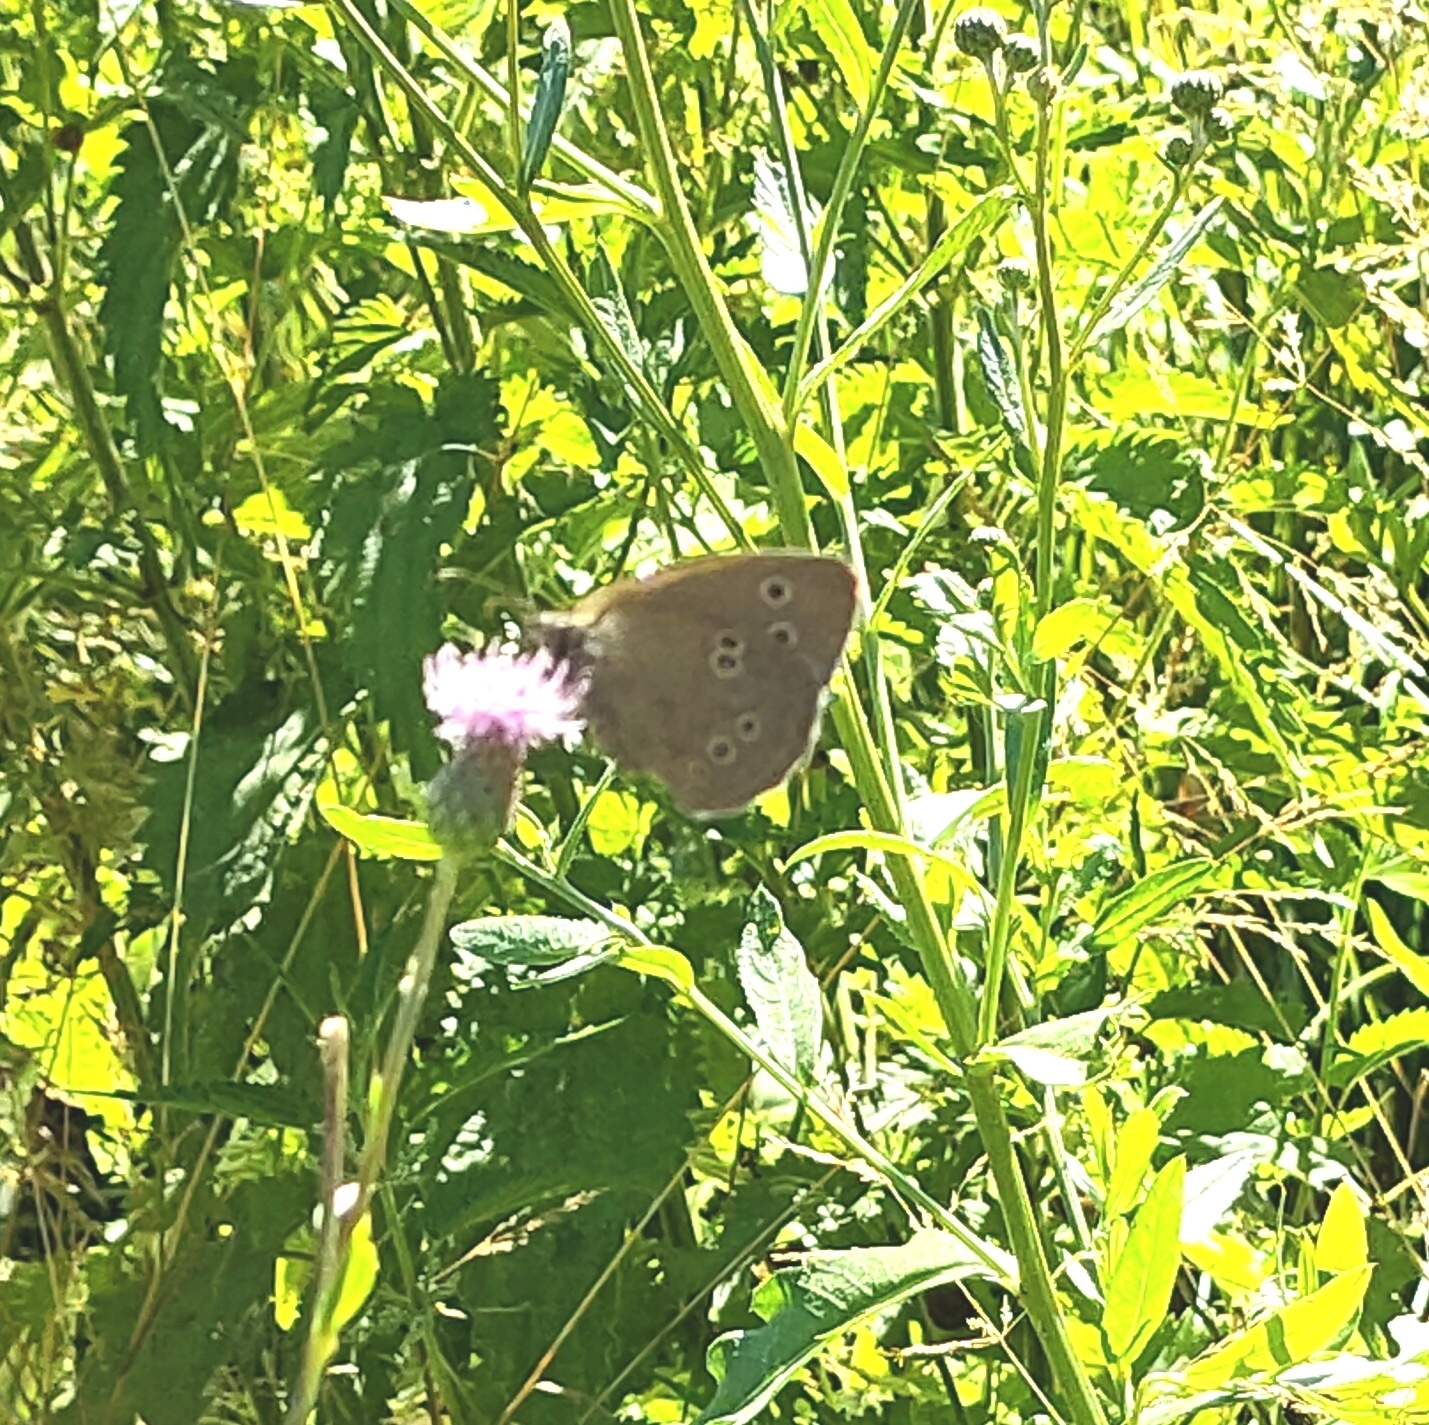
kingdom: Animalia
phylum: Arthropoda
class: Insecta
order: Lepidoptera
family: Nymphalidae
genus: Aphantopus
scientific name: Aphantopus hyperantus
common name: Ringlet
